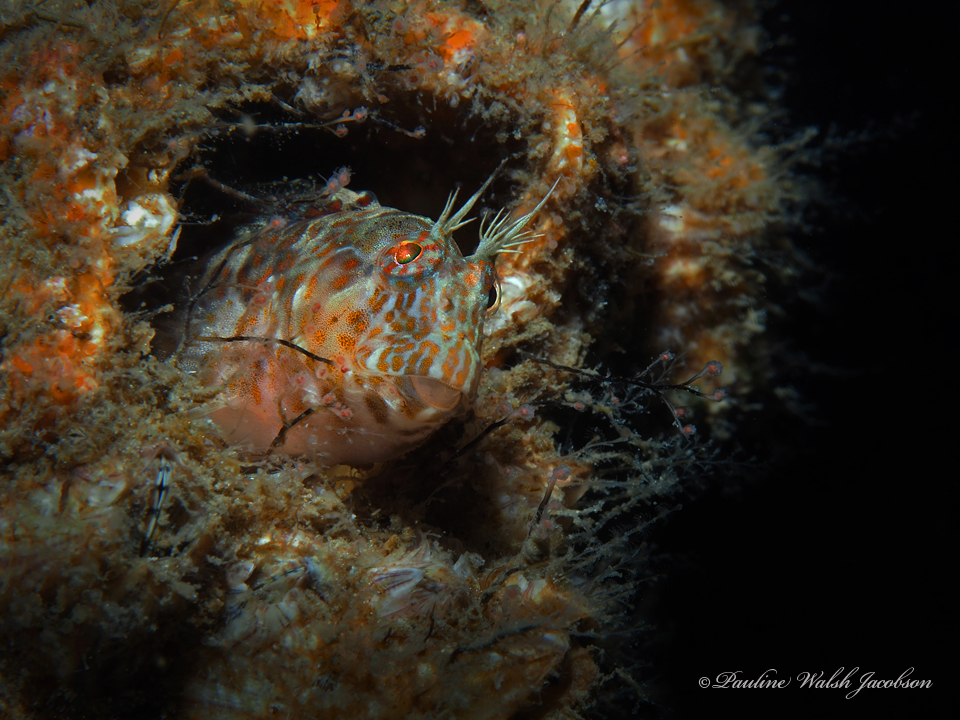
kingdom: Animalia
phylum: Chordata
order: Perciformes
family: Blenniidae
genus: Hypleurochilus
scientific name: Hypleurochilus pseudoaequipinnis
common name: Oyster blenny
